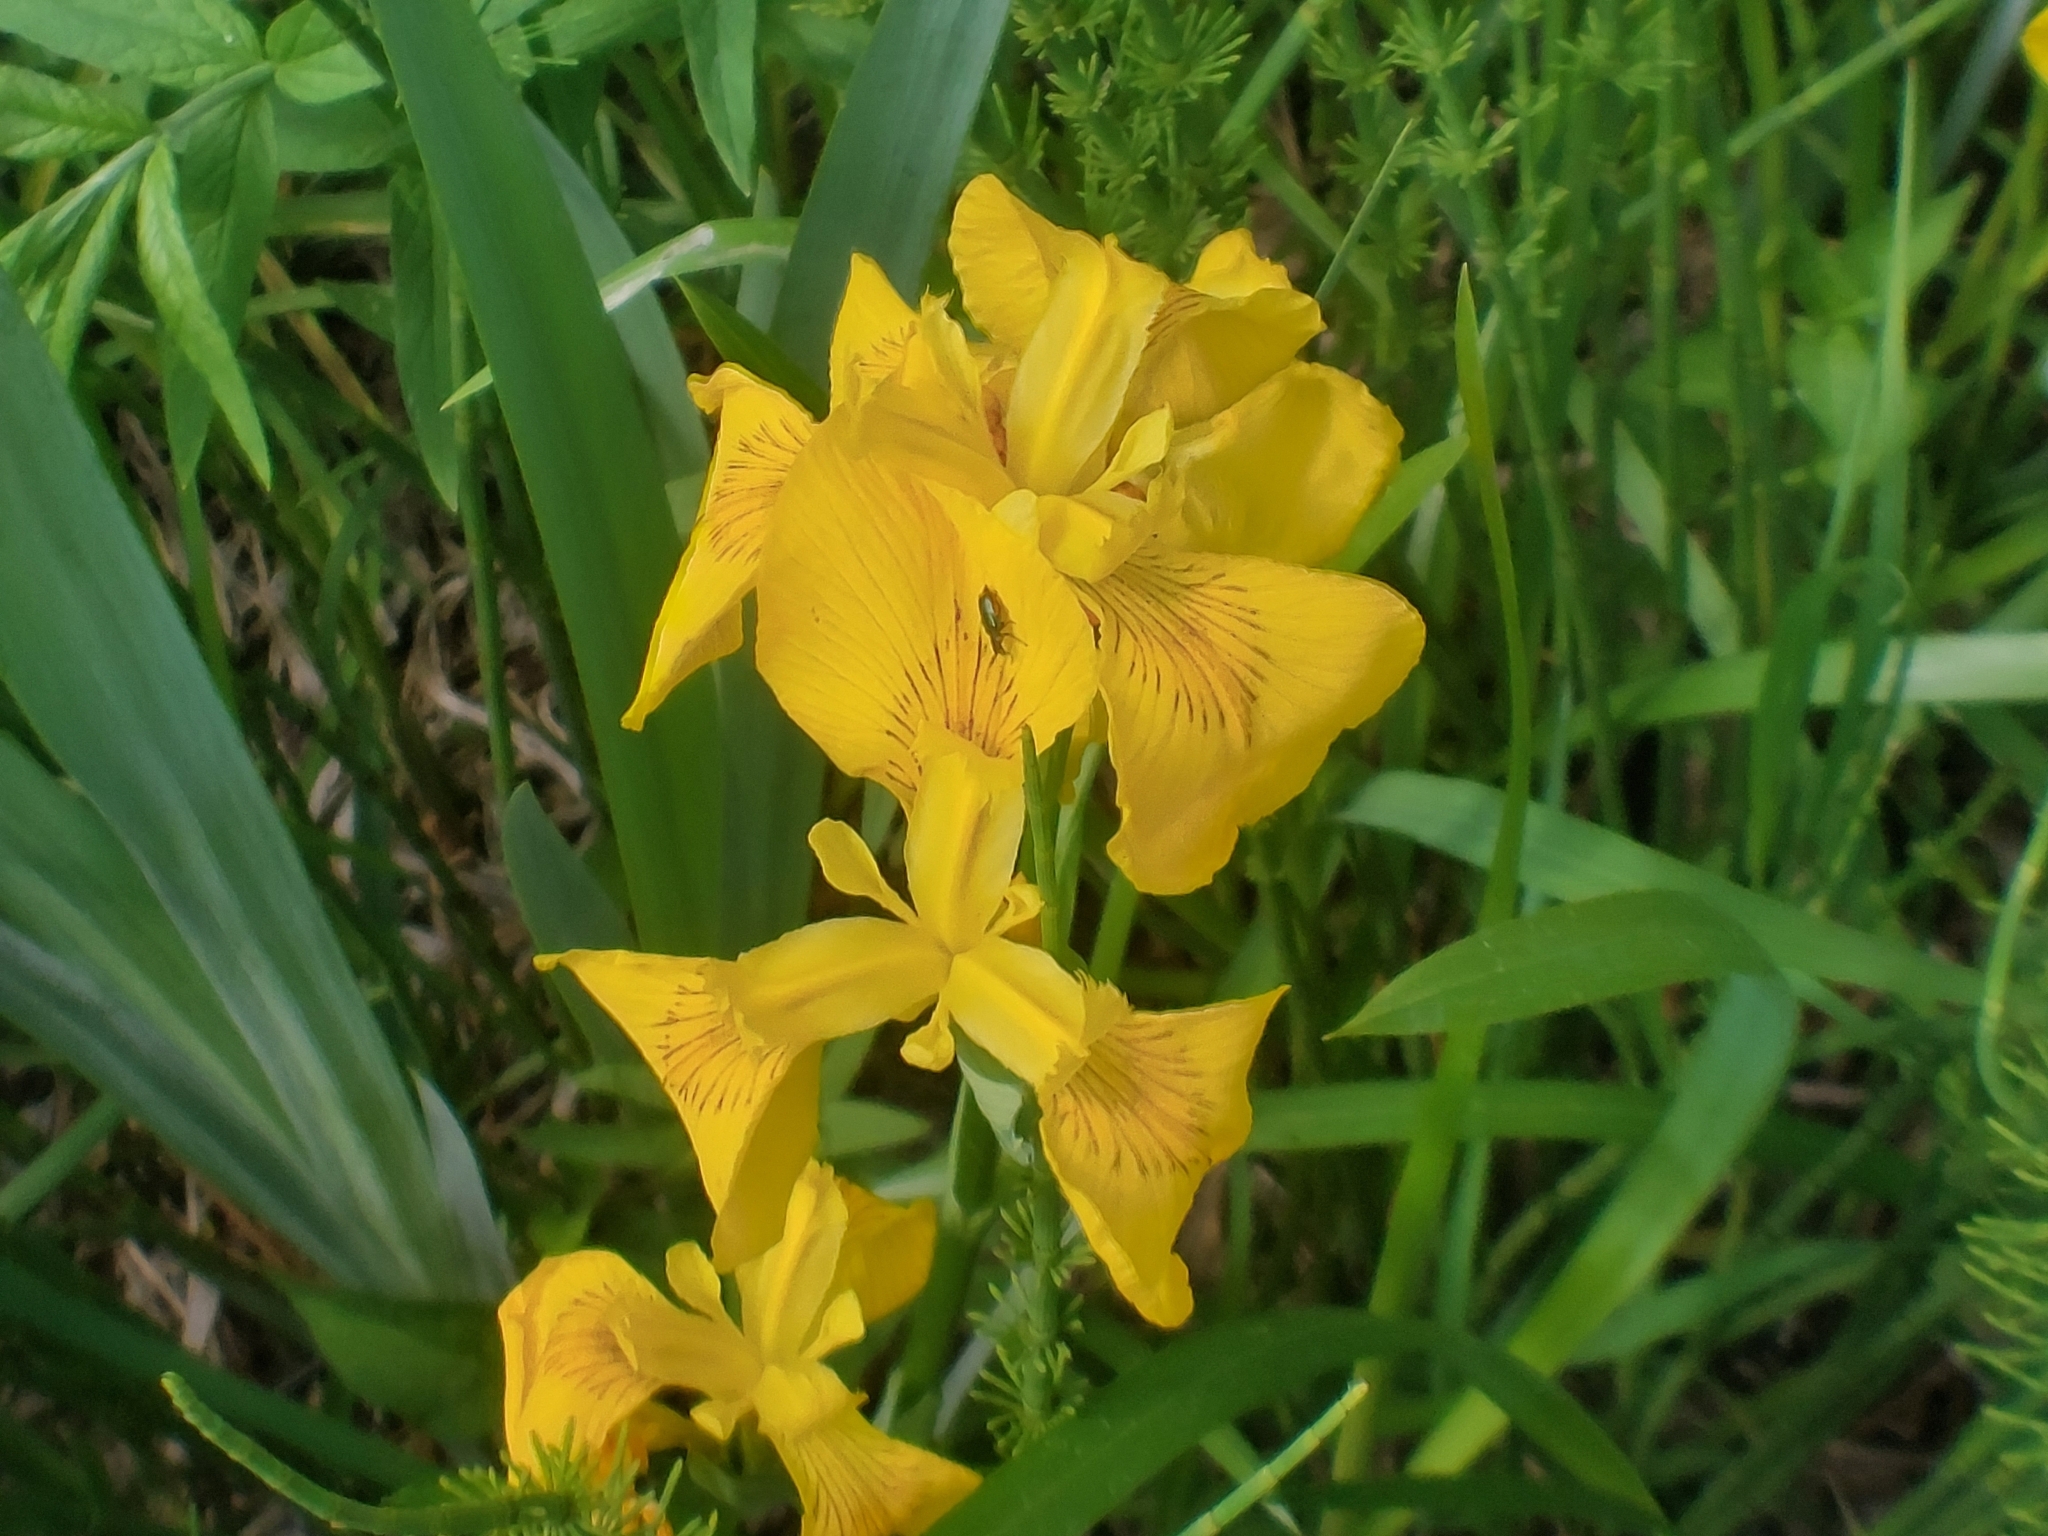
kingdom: Plantae
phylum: Tracheophyta
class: Liliopsida
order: Asparagales
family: Iridaceae
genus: Iris
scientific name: Iris pseudacorus
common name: Yellow flag
